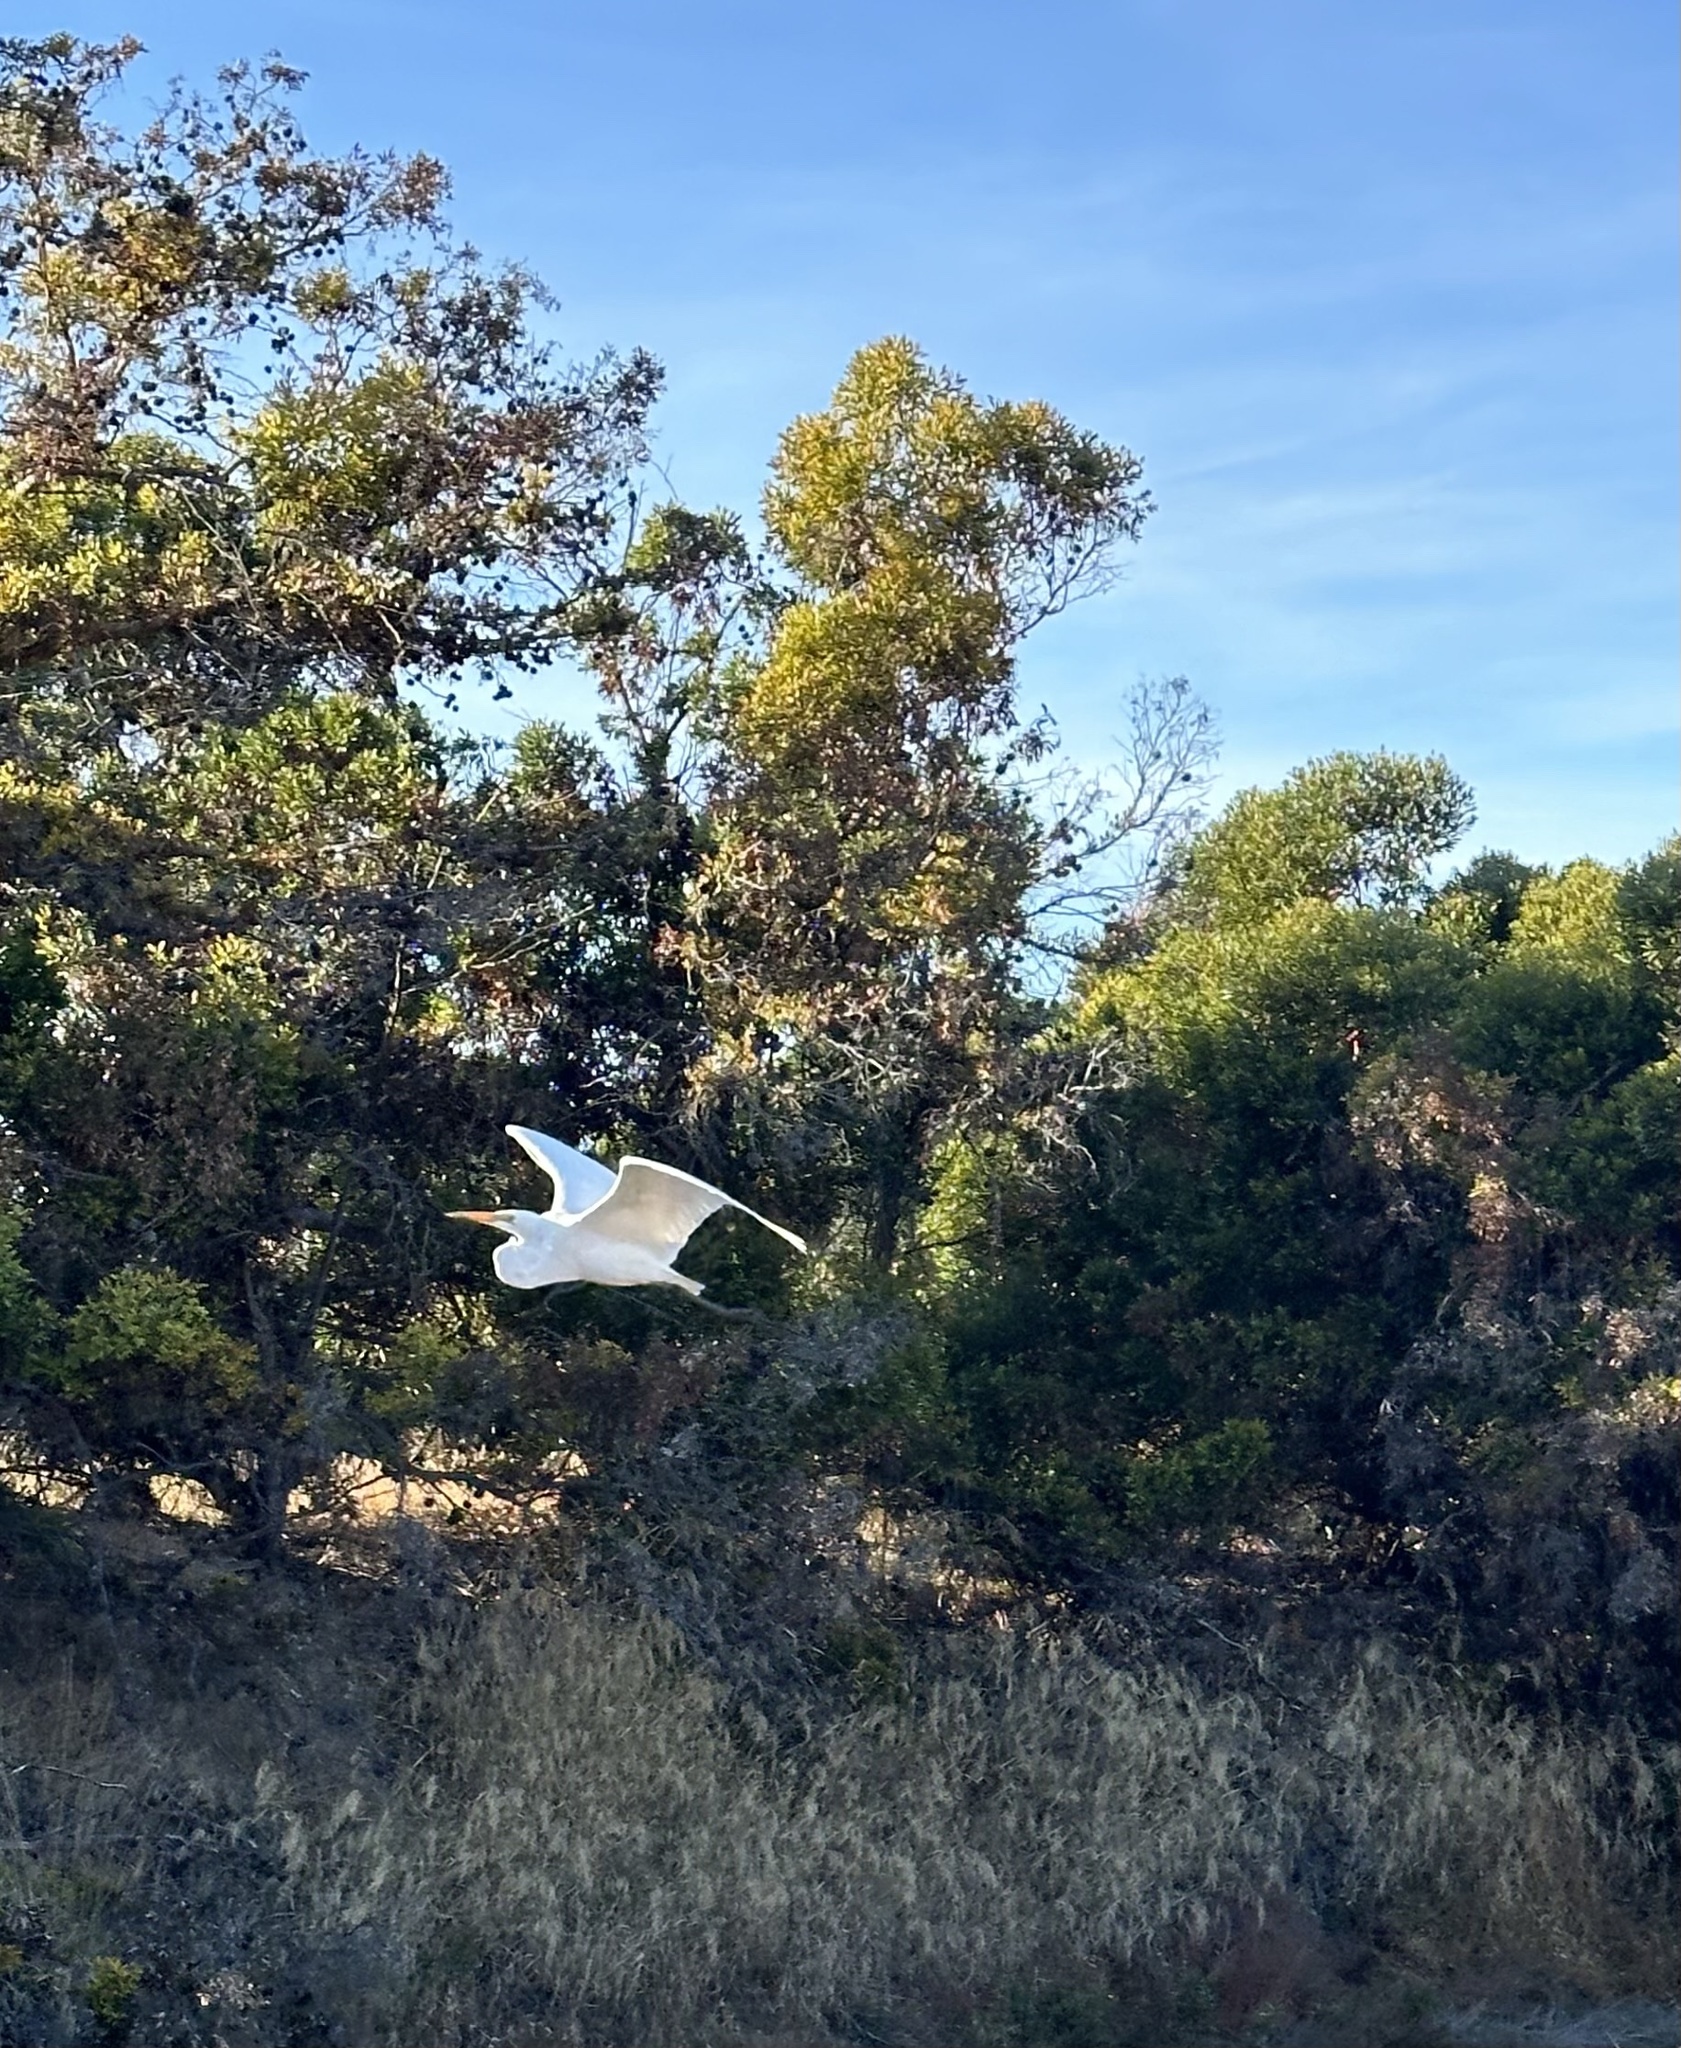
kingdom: Animalia
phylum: Chordata
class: Aves
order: Pelecaniformes
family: Ardeidae
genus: Ardea
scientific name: Ardea alba
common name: Great egret
